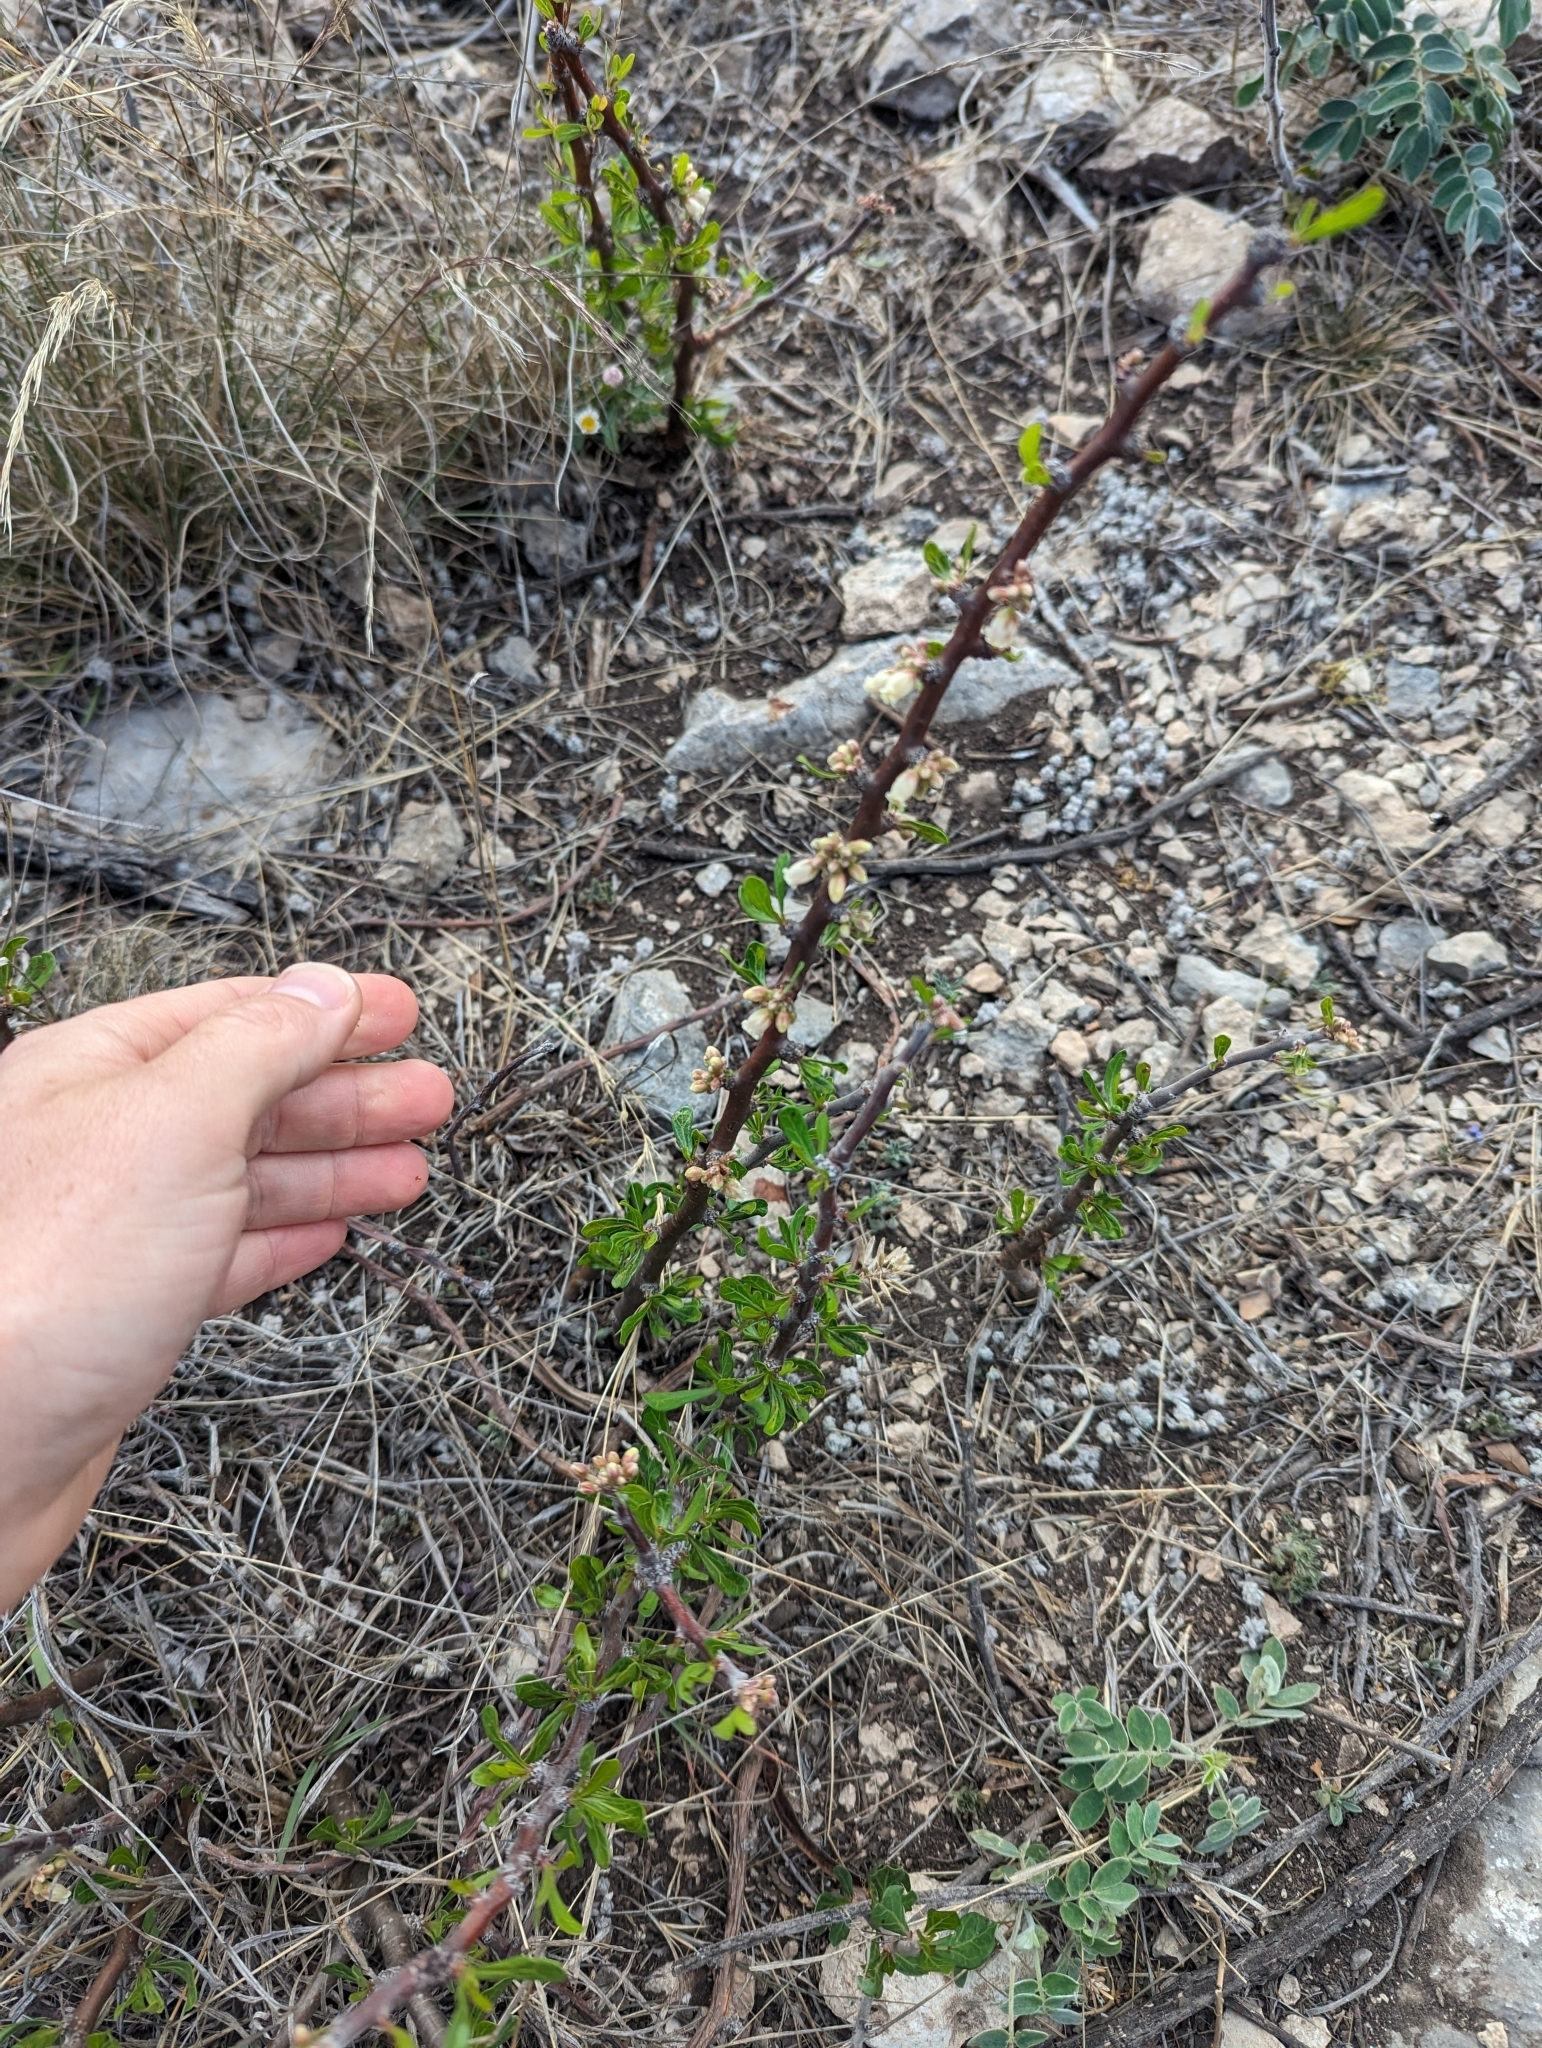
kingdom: Plantae
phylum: Tracheophyta
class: Magnoliopsida
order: Malpighiales
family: Euphorbiaceae
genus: Jatropha
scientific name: Jatropha dioica
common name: Leatherstem
